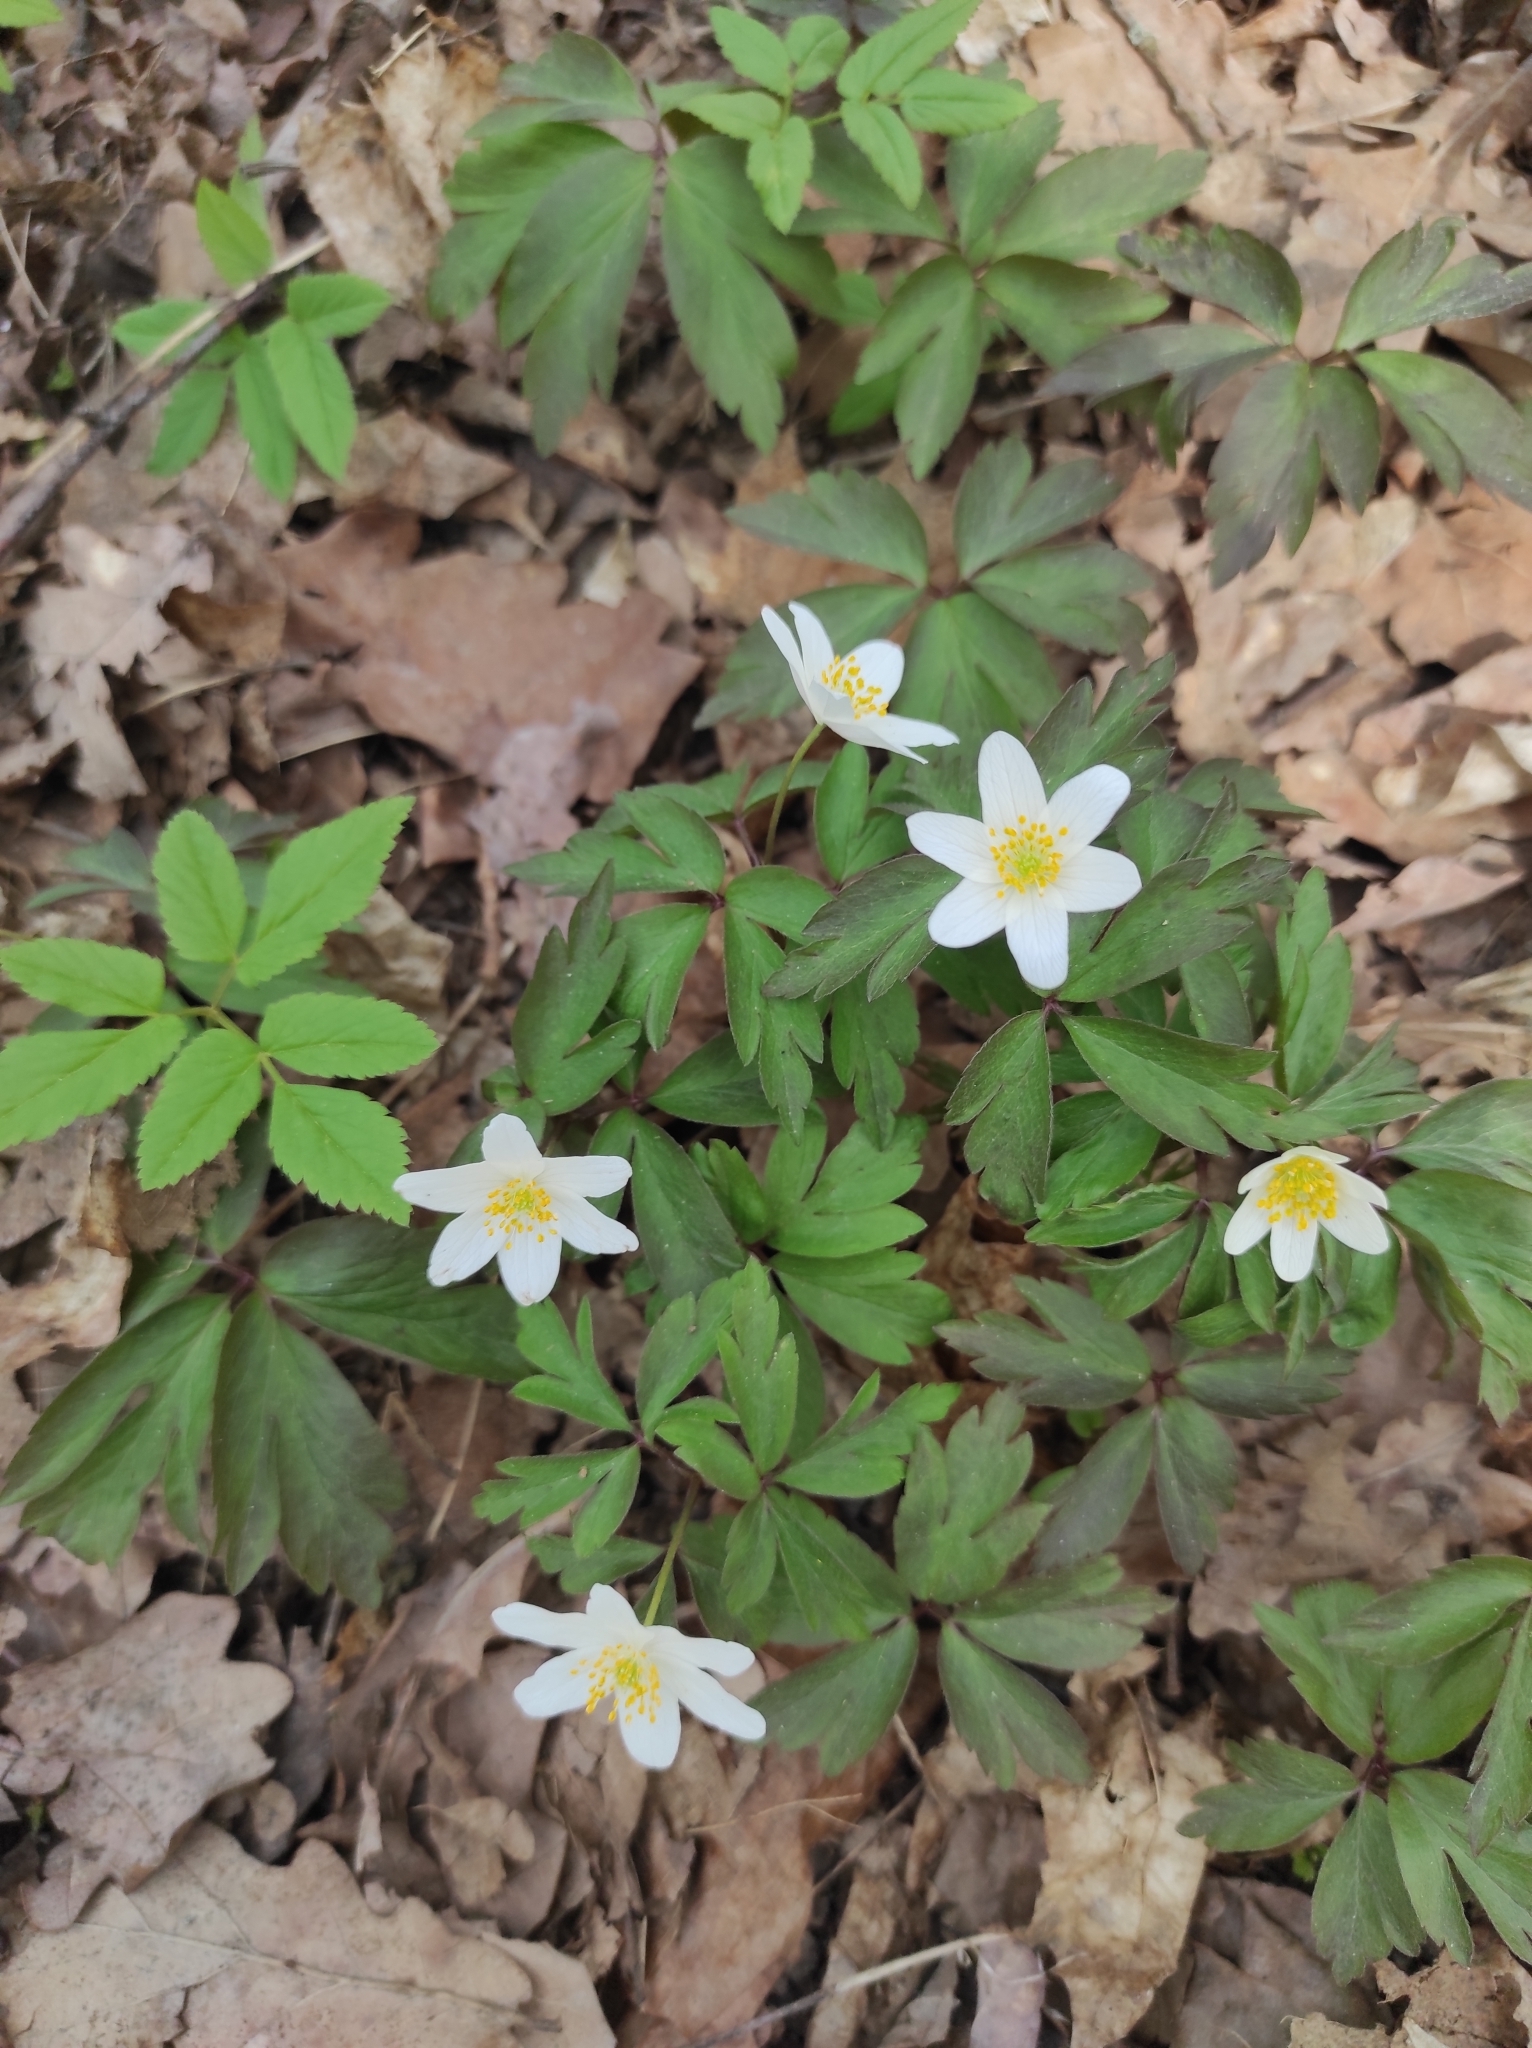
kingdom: Plantae
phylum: Tracheophyta
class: Magnoliopsida
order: Ranunculales
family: Ranunculaceae
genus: Anemone
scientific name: Anemone nemorosa
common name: Wood anemone
